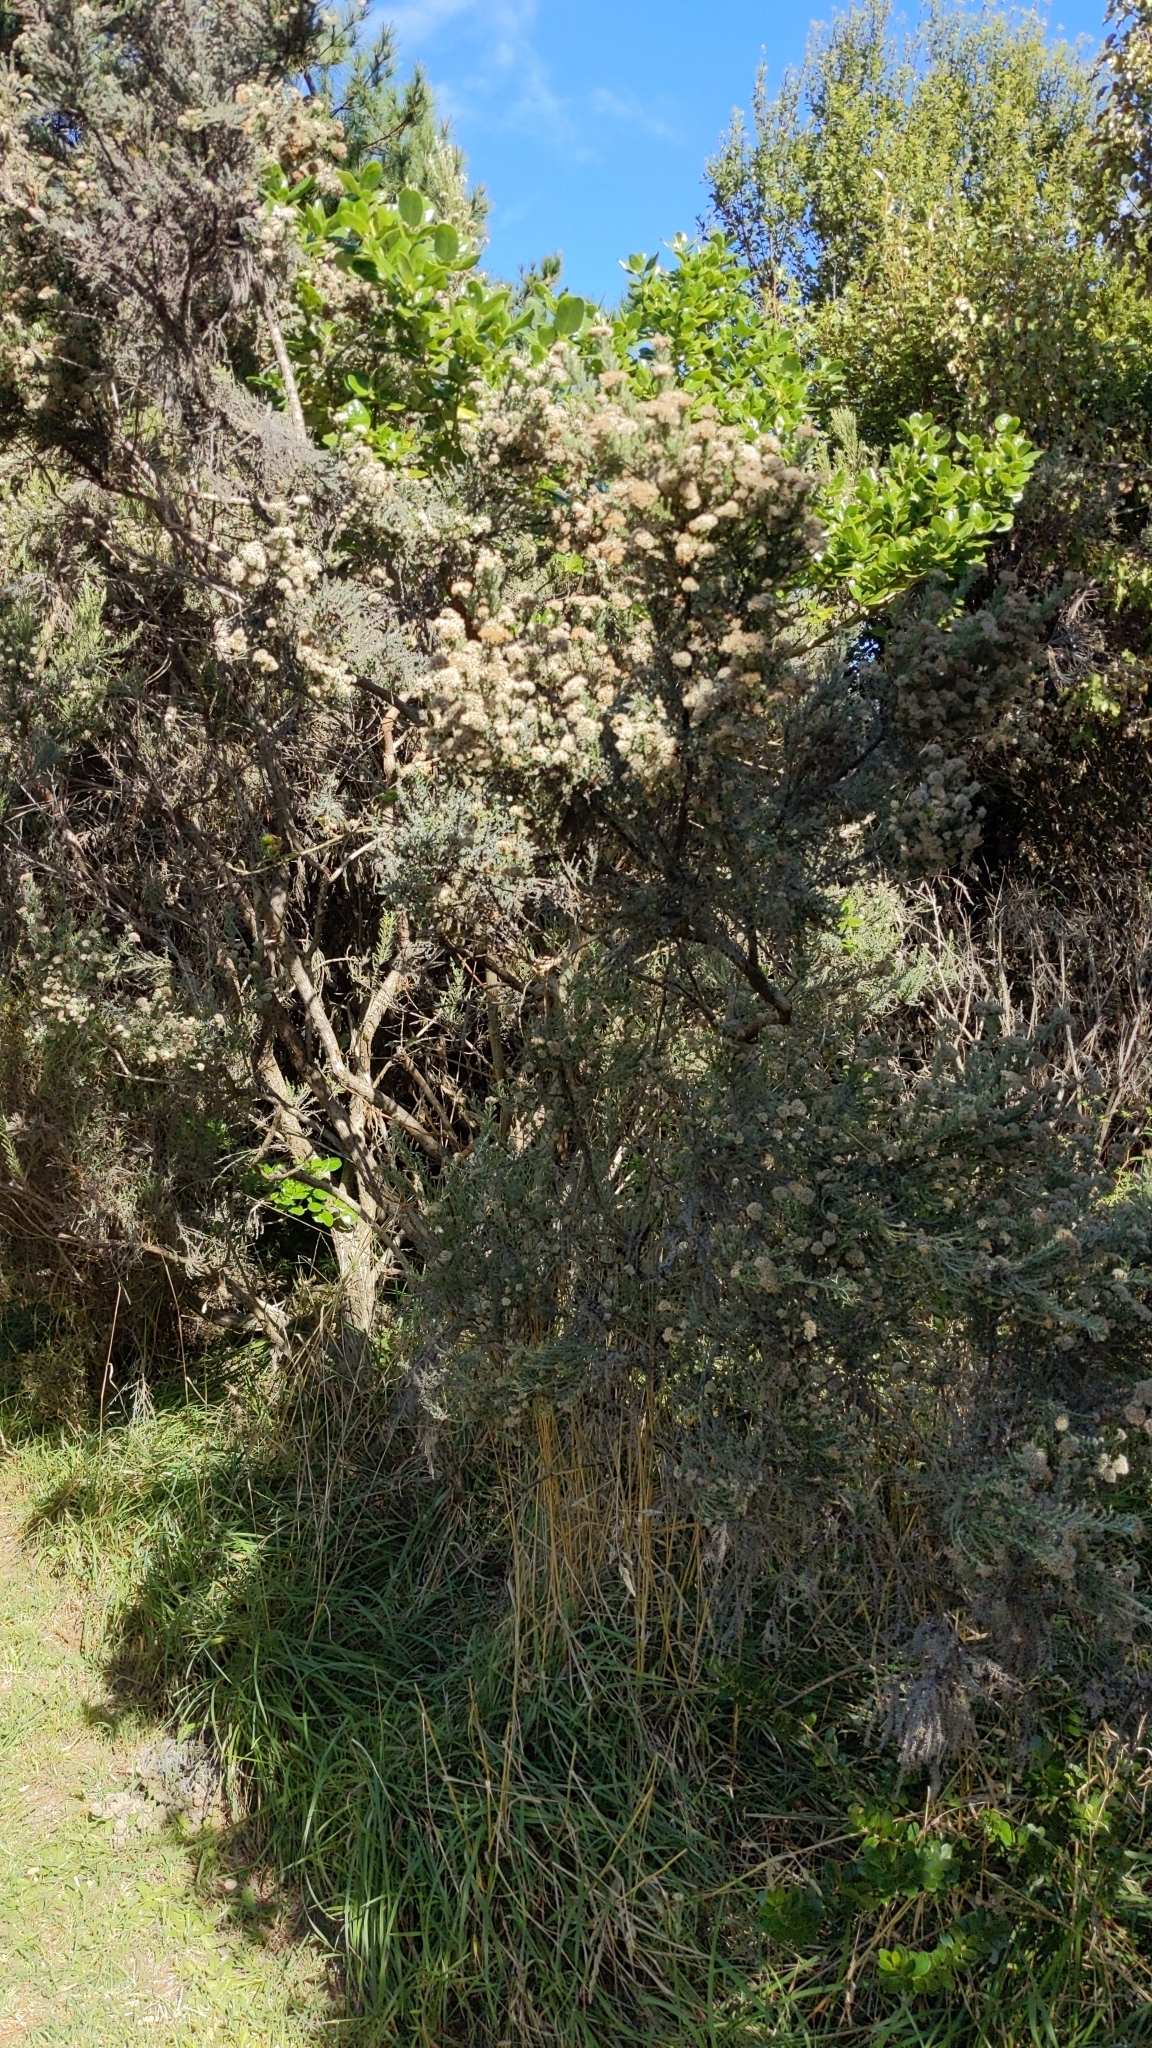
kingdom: Plantae
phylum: Tracheophyta
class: Magnoliopsida
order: Asterales
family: Asteraceae
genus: Ozothamnus
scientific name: Ozothamnus leptophyllus
